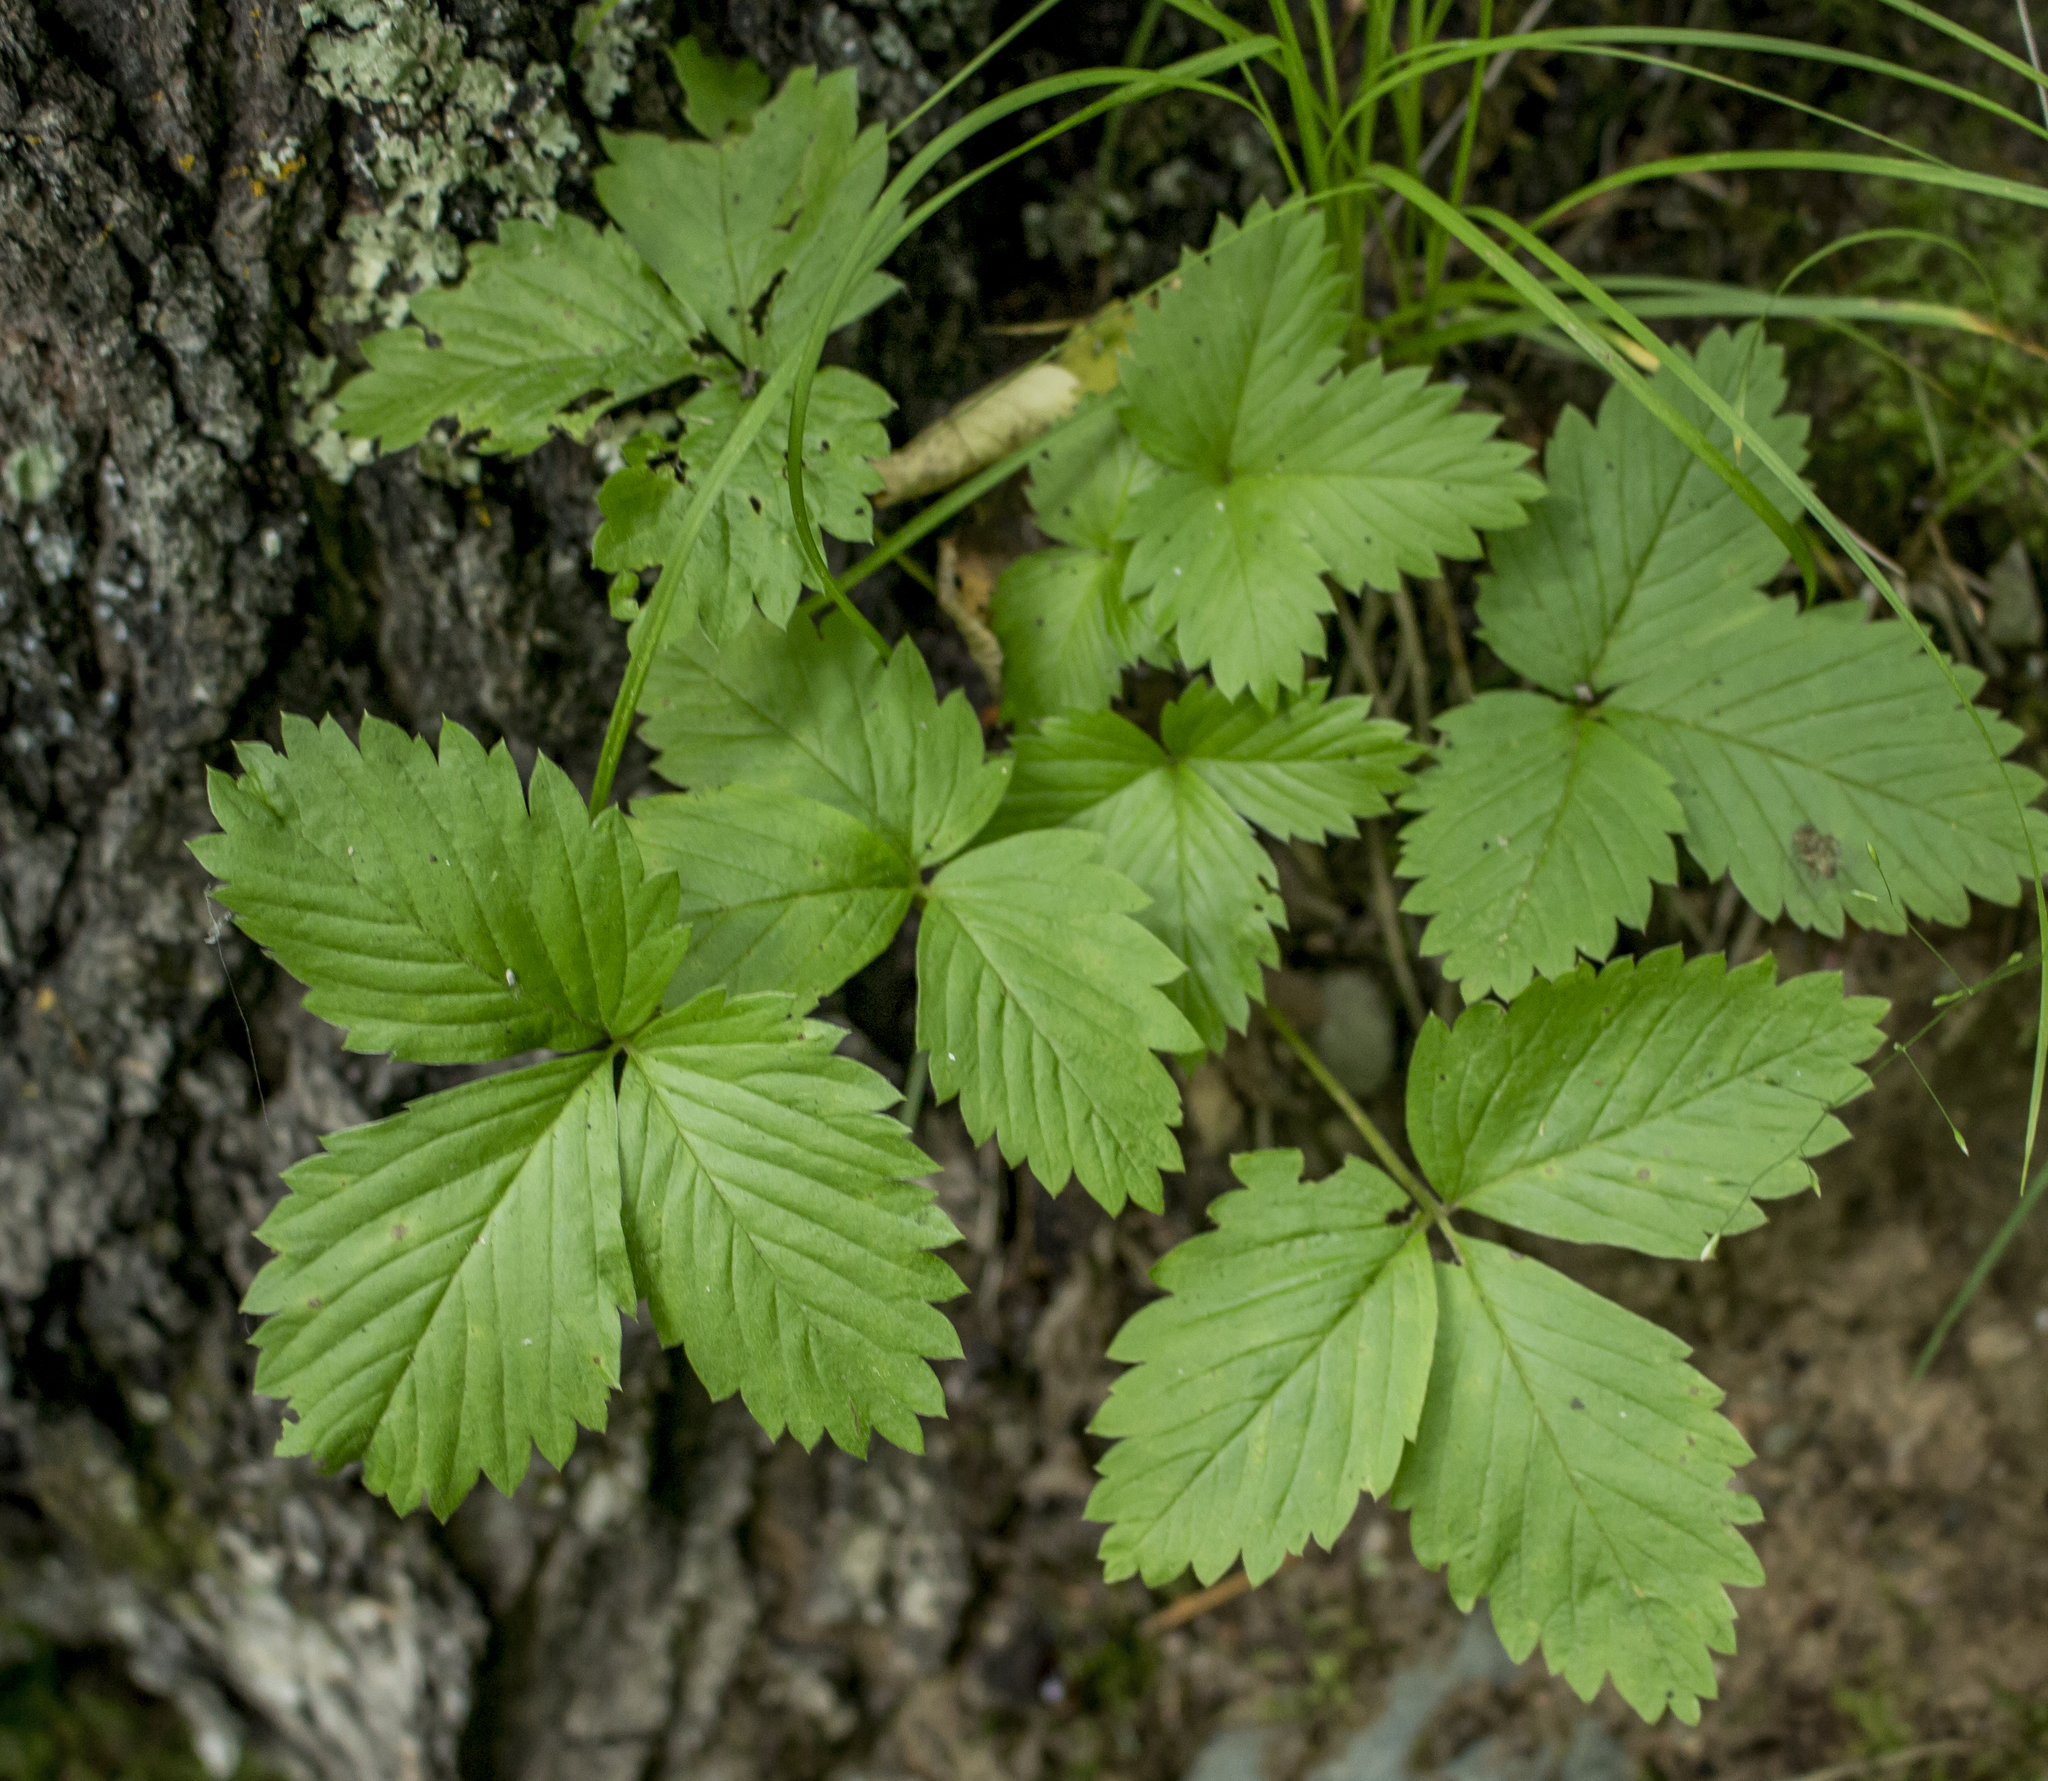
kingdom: Plantae
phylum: Tracheophyta
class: Magnoliopsida
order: Rosales
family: Rosaceae
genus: Fragaria
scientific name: Fragaria vesca
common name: Wild strawberry
